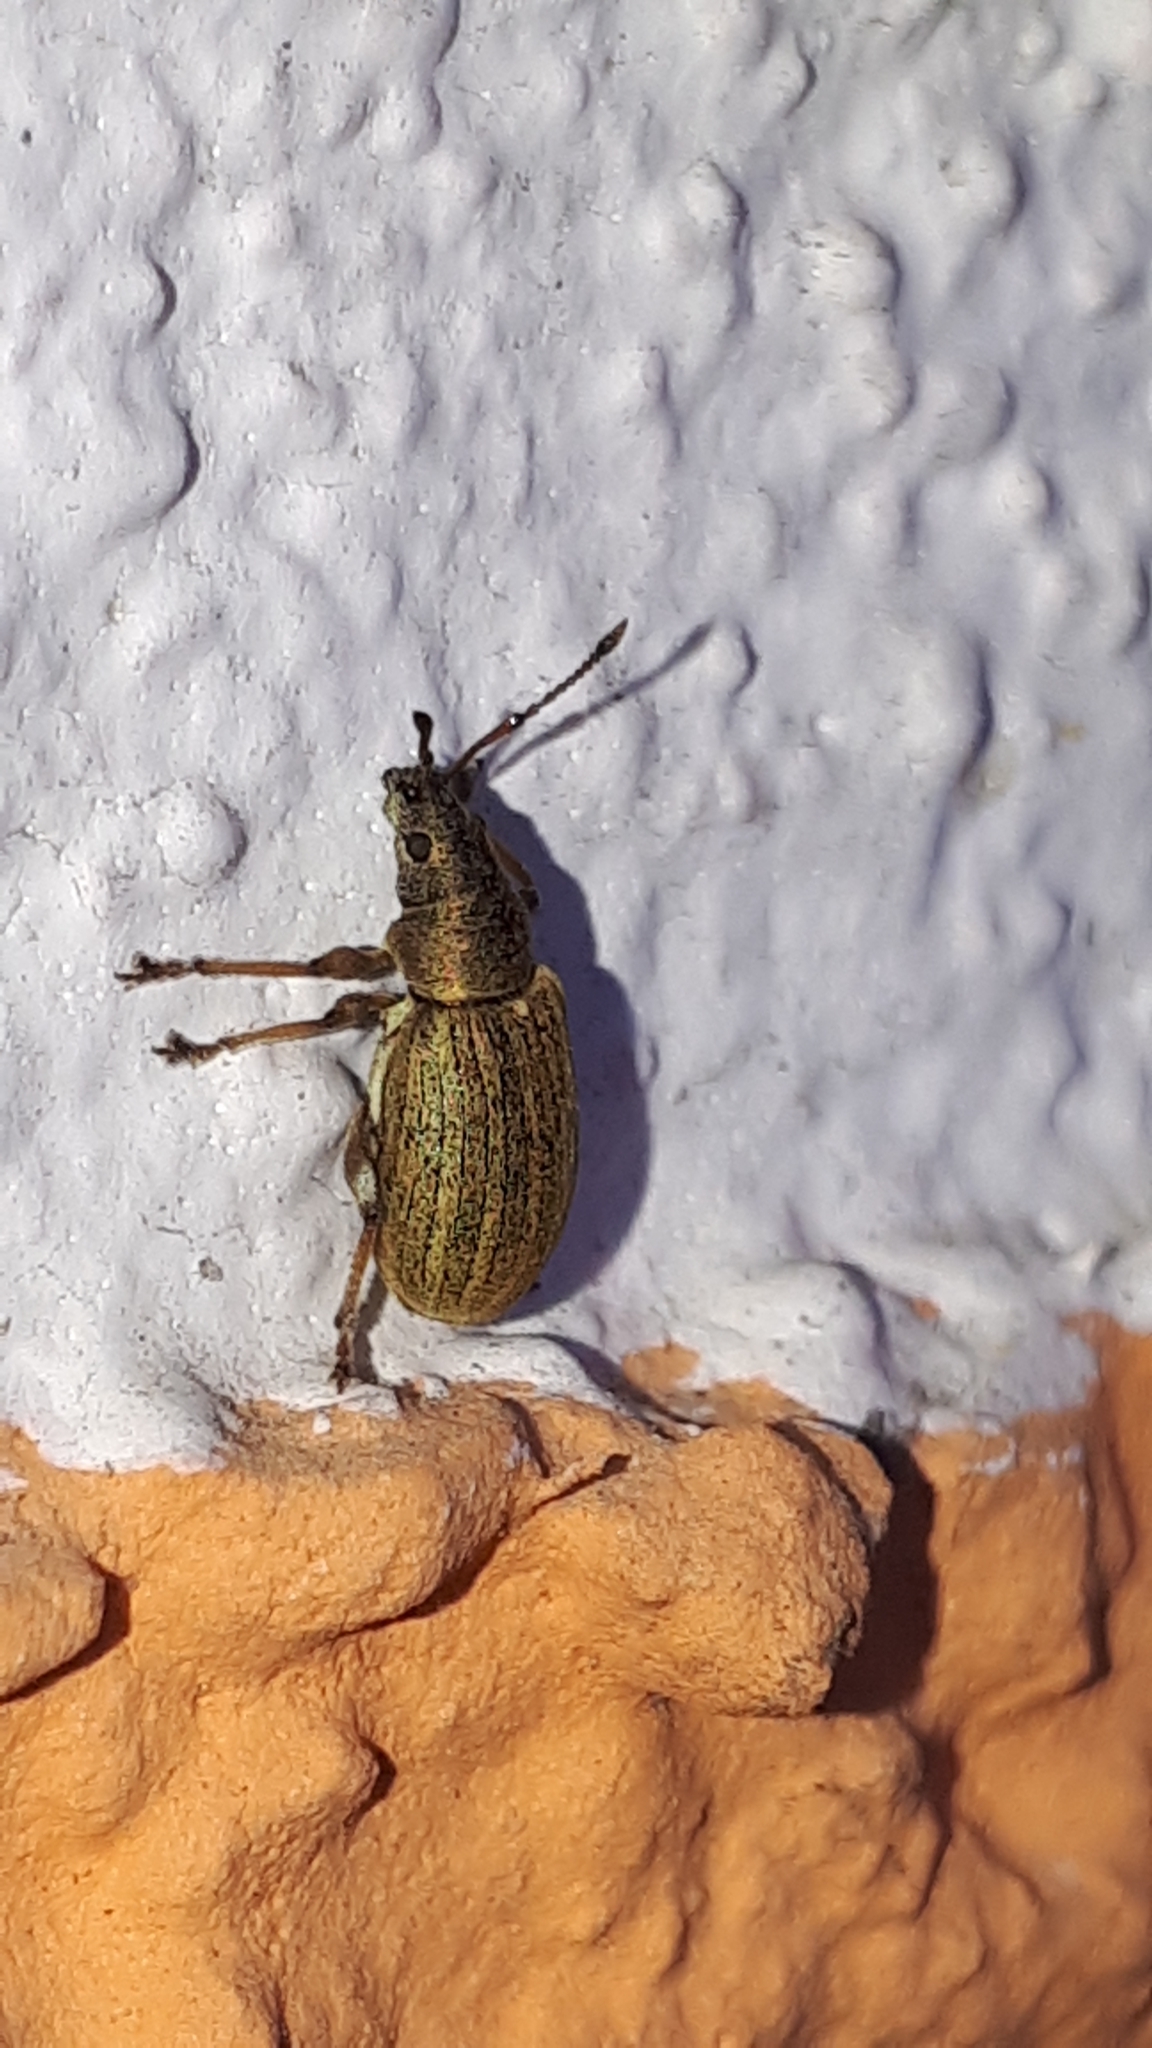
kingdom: Animalia
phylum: Arthropoda
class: Insecta
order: Coleoptera
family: Curculionidae
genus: Phyllobius
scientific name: Phyllobius pyri
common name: Common leaf weevil
